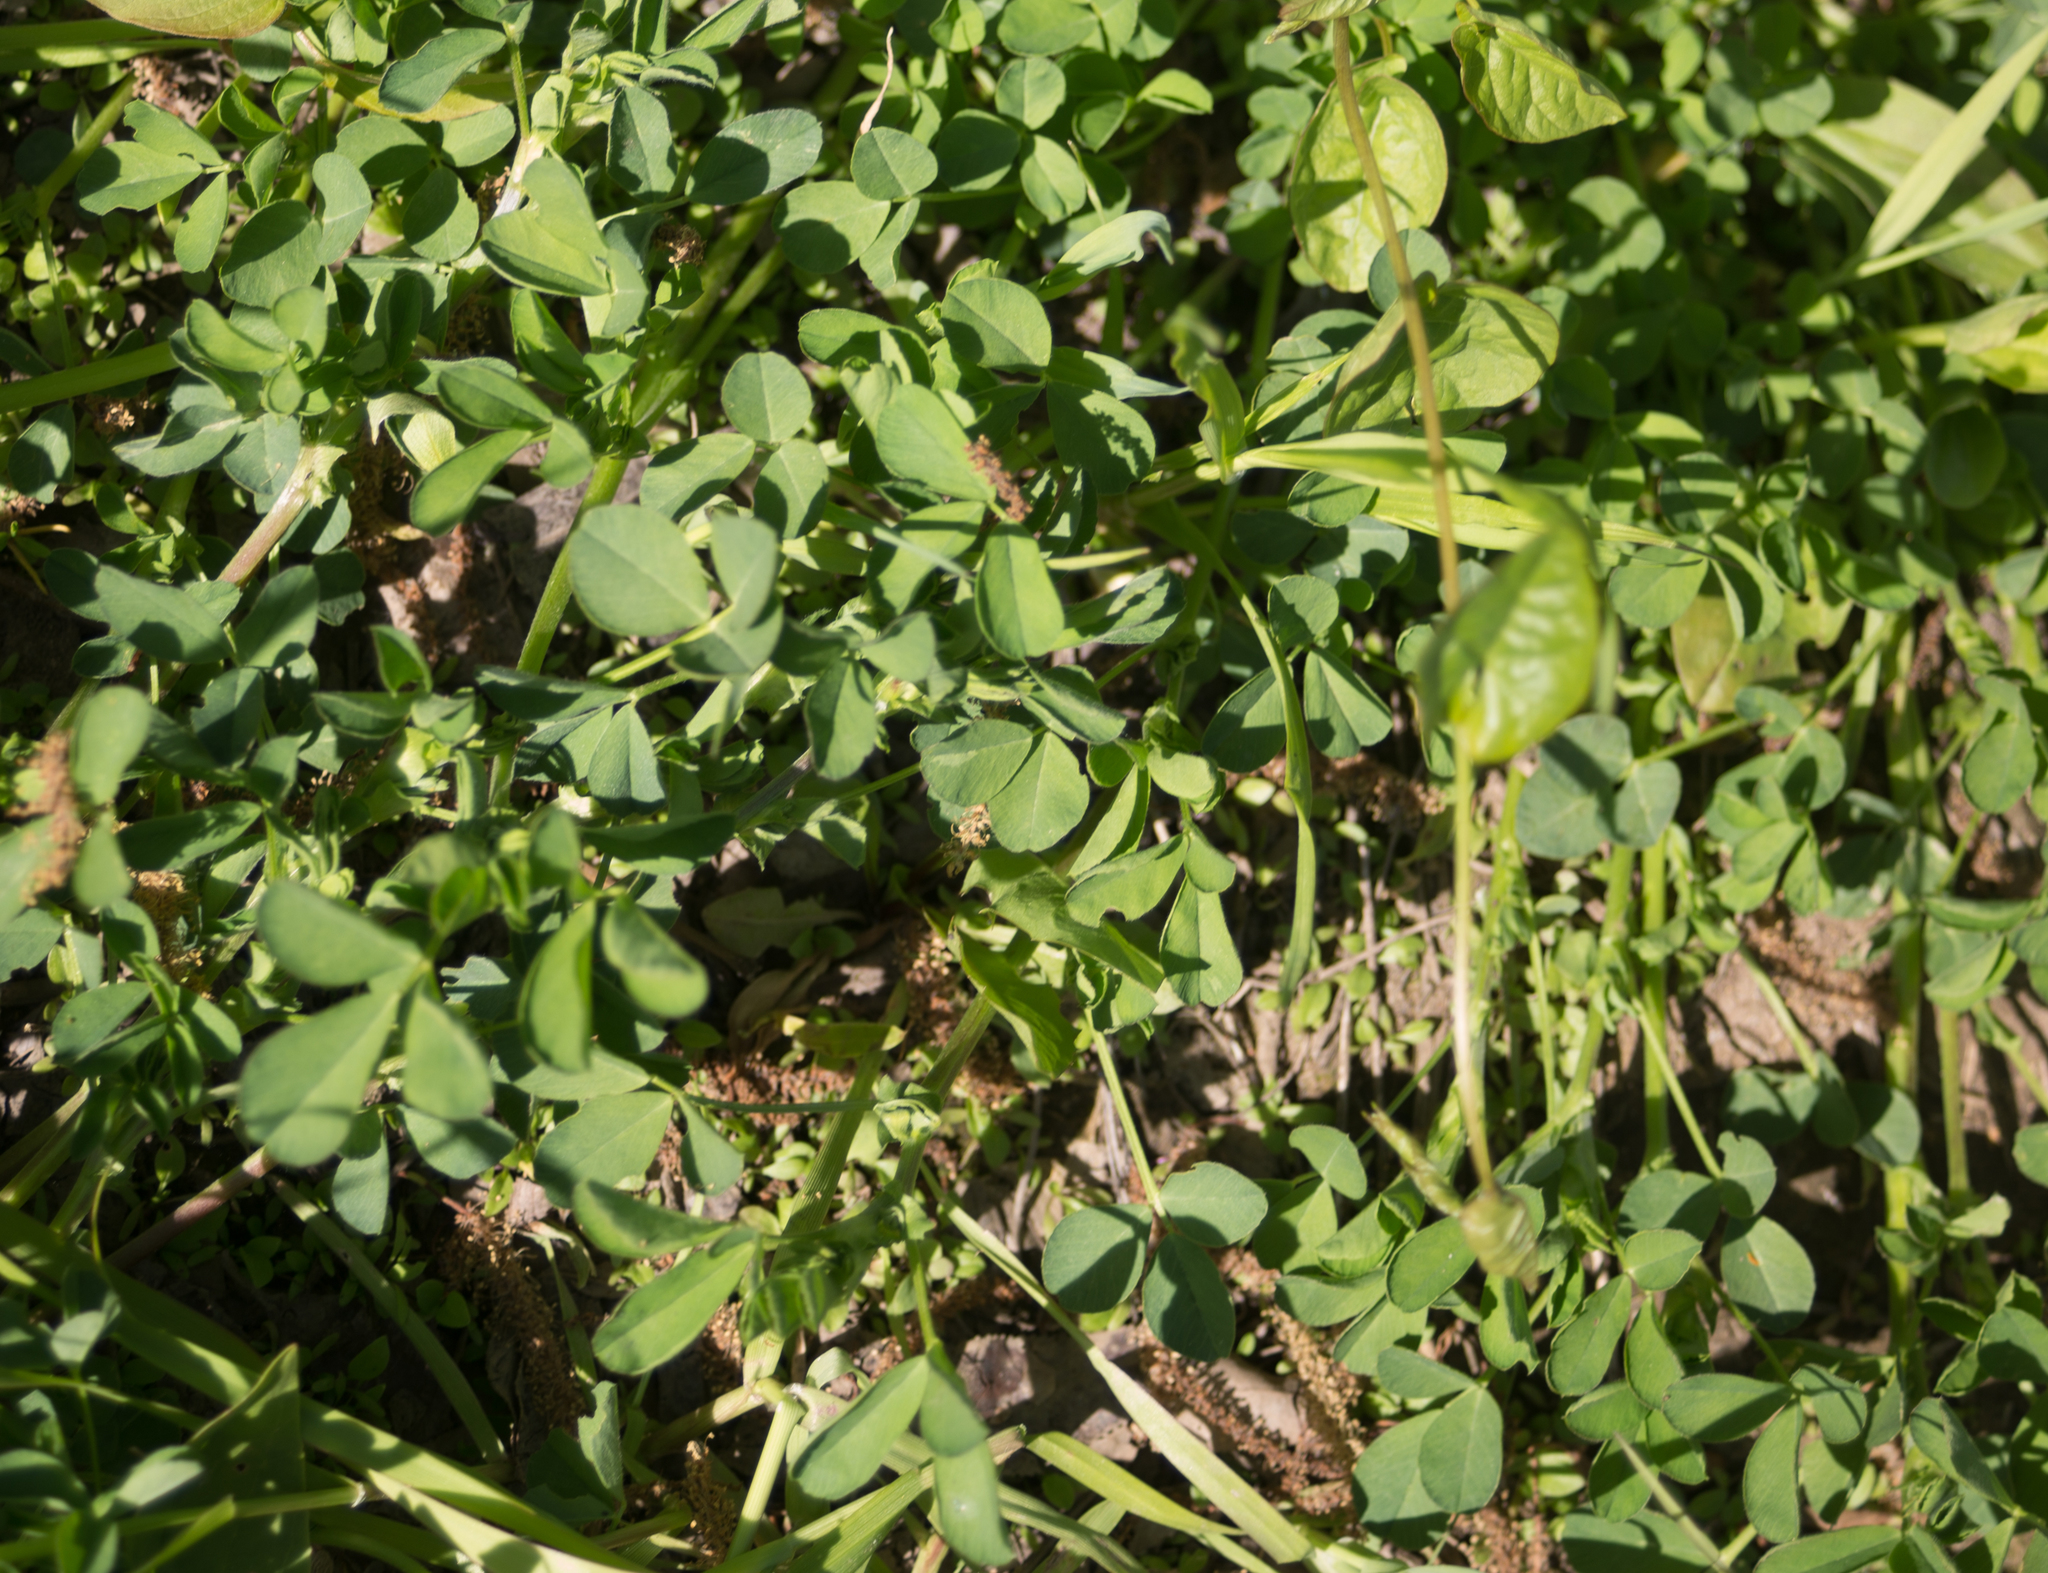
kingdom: Plantae
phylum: Tracheophyta
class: Magnoliopsida
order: Fabales
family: Fabaceae
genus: Medicago
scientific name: Medicago lupulina
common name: Black medick
